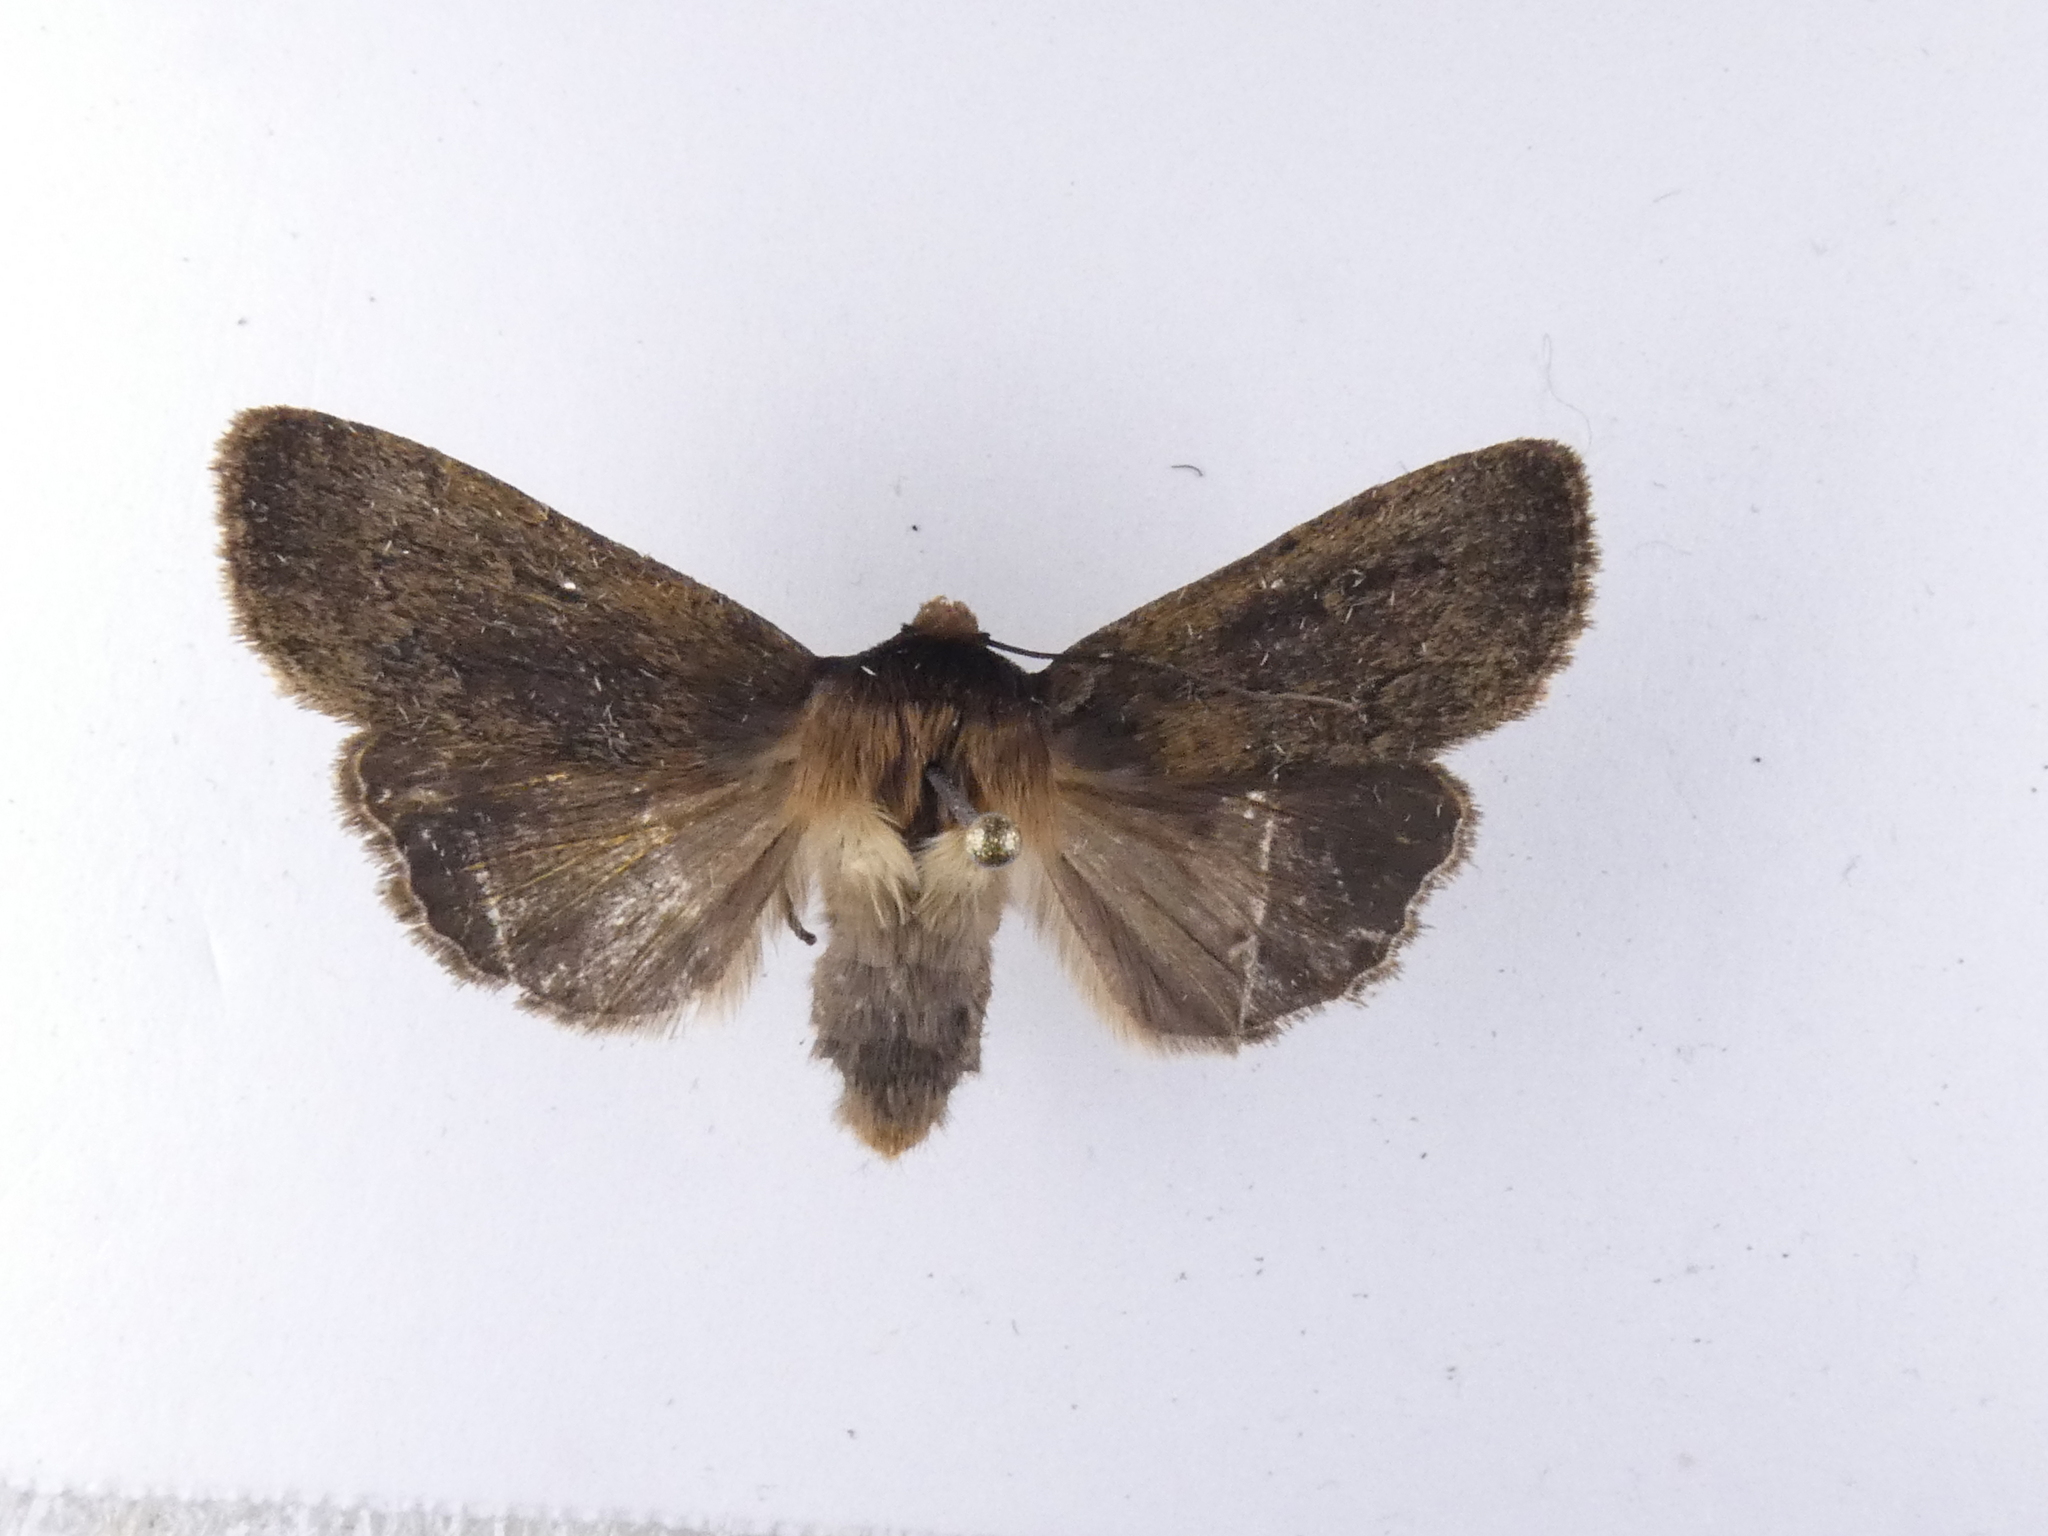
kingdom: Animalia
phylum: Arthropoda
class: Insecta
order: Lepidoptera
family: Noctuidae
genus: Bityla
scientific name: Bityla defigurata
